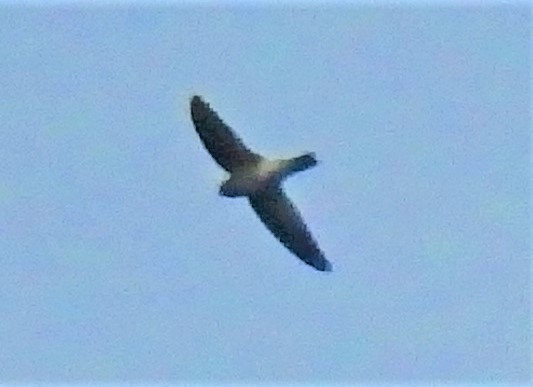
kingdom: Animalia
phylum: Chordata
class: Aves
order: Apodiformes
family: Apodidae
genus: Aerodramus
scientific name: Aerodramus
